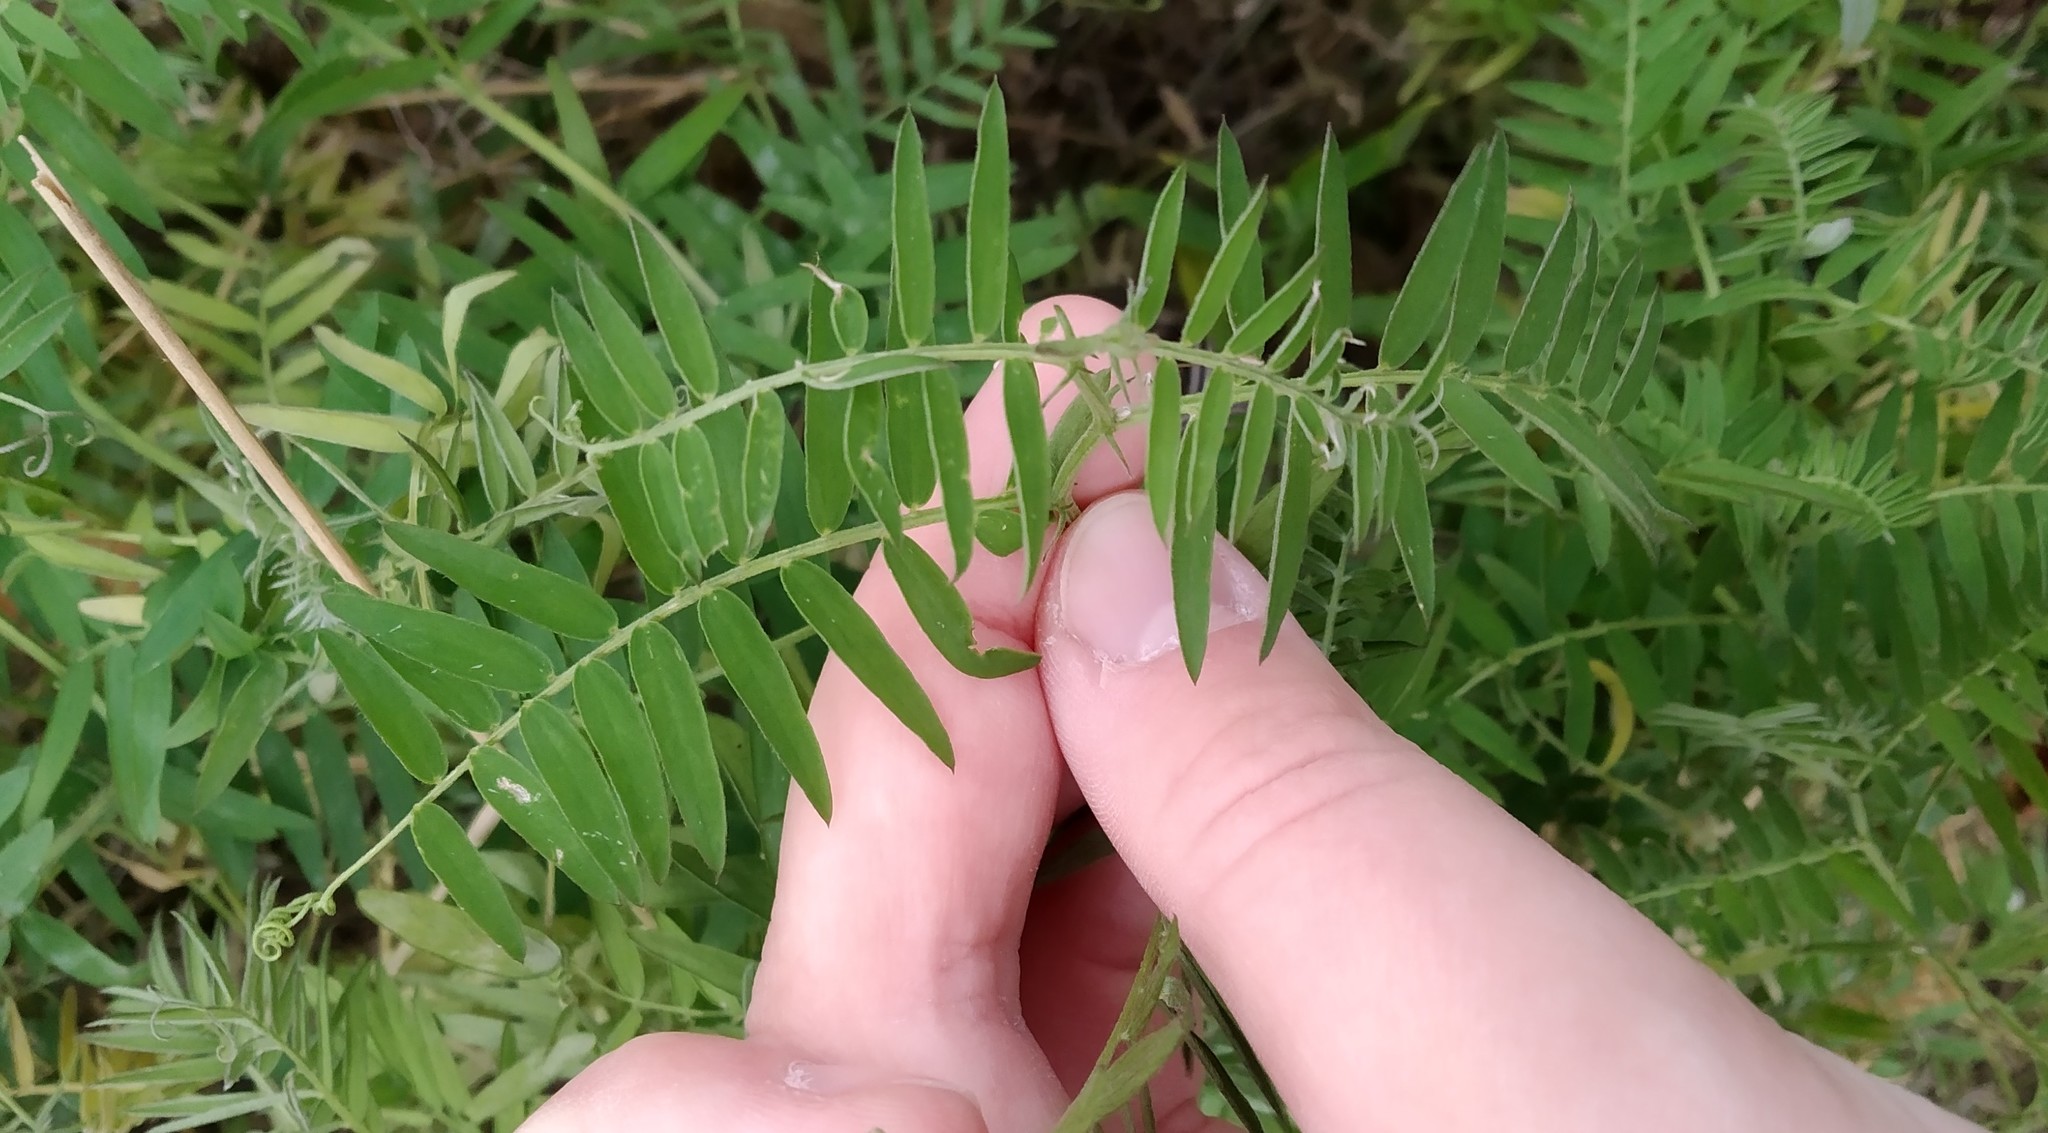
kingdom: Plantae
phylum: Tracheophyta
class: Magnoliopsida
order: Fabales
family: Fabaceae
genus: Vicia
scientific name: Vicia cracca
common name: Bird vetch
